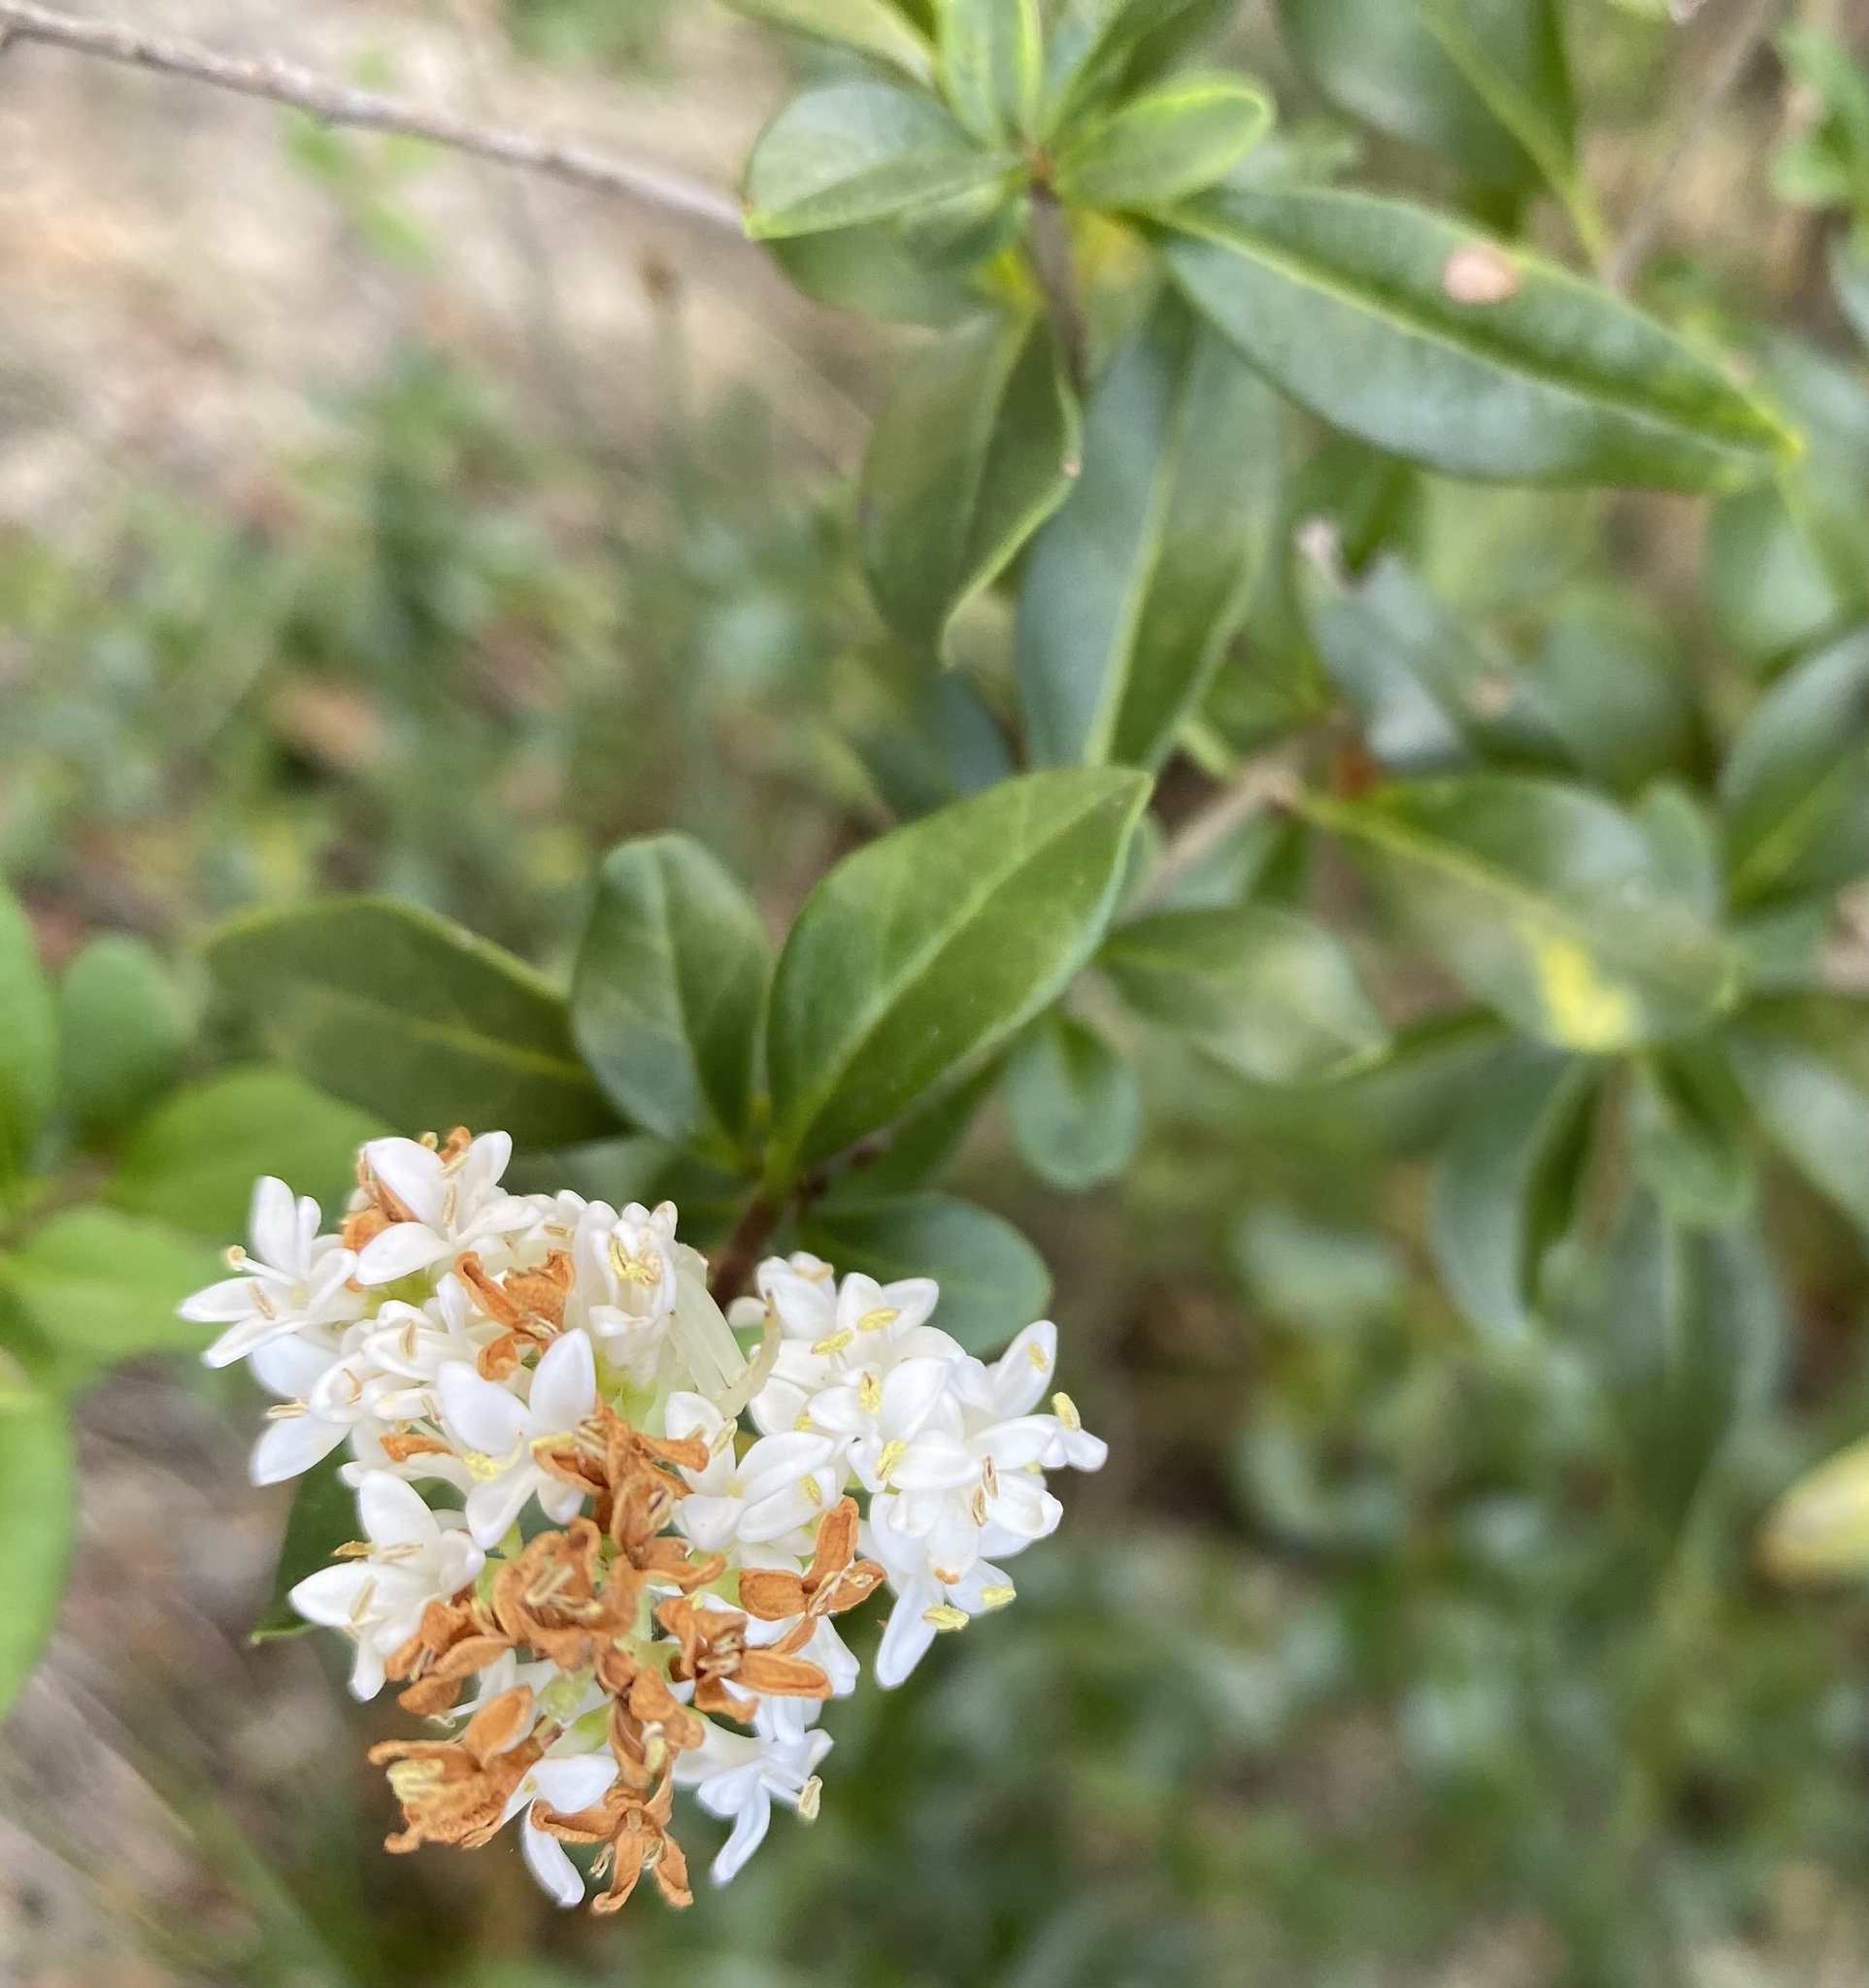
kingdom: Plantae
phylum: Tracheophyta
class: Magnoliopsida
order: Lamiales
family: Oleaceae
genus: Ligustrum
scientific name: Ligustrum vulgare
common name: Wild privet
